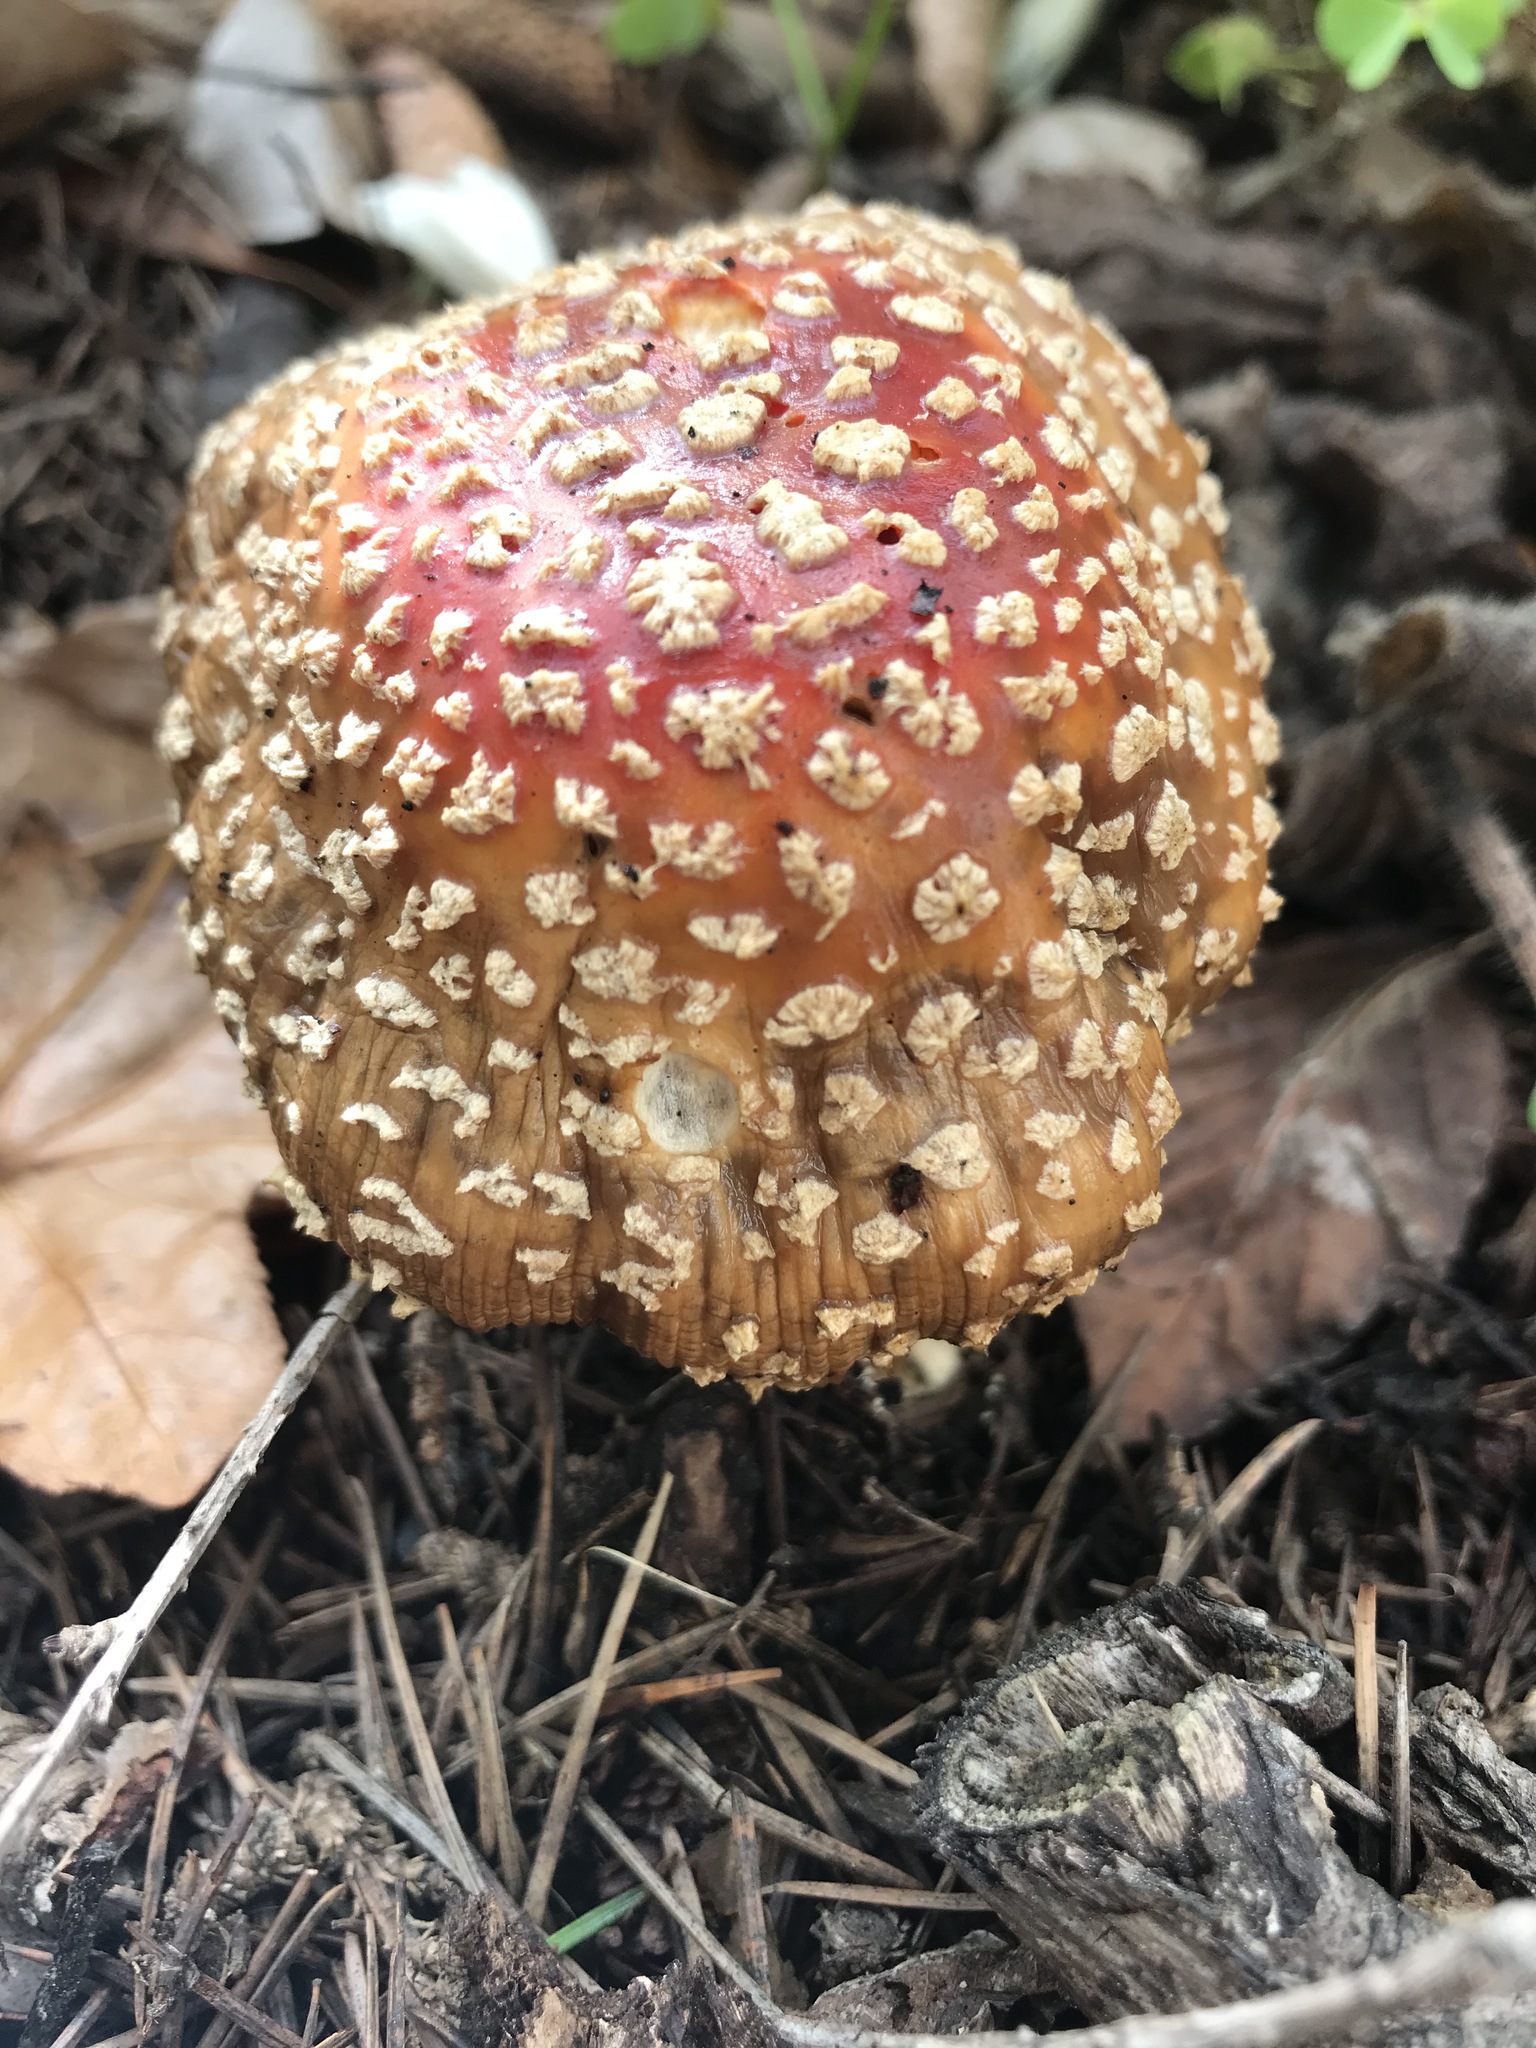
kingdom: Fungi
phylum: Basidiomycota
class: Agaricomycetes
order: Agaricales
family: Amanitaceae
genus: Amanita
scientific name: Amanita muscaria
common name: Fly agaric
